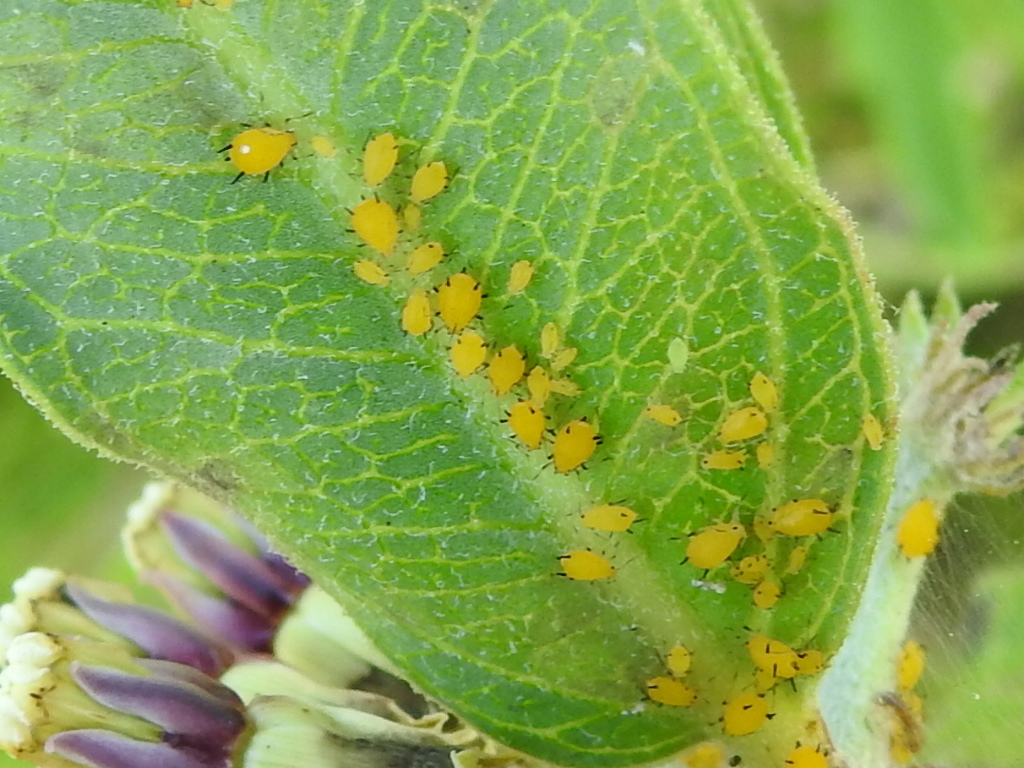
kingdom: Animalia
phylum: Arthropoda
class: Insecta
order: Hemiptera
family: Aphididae
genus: Aphis
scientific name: Aphis nerii
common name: Oleander aphid
